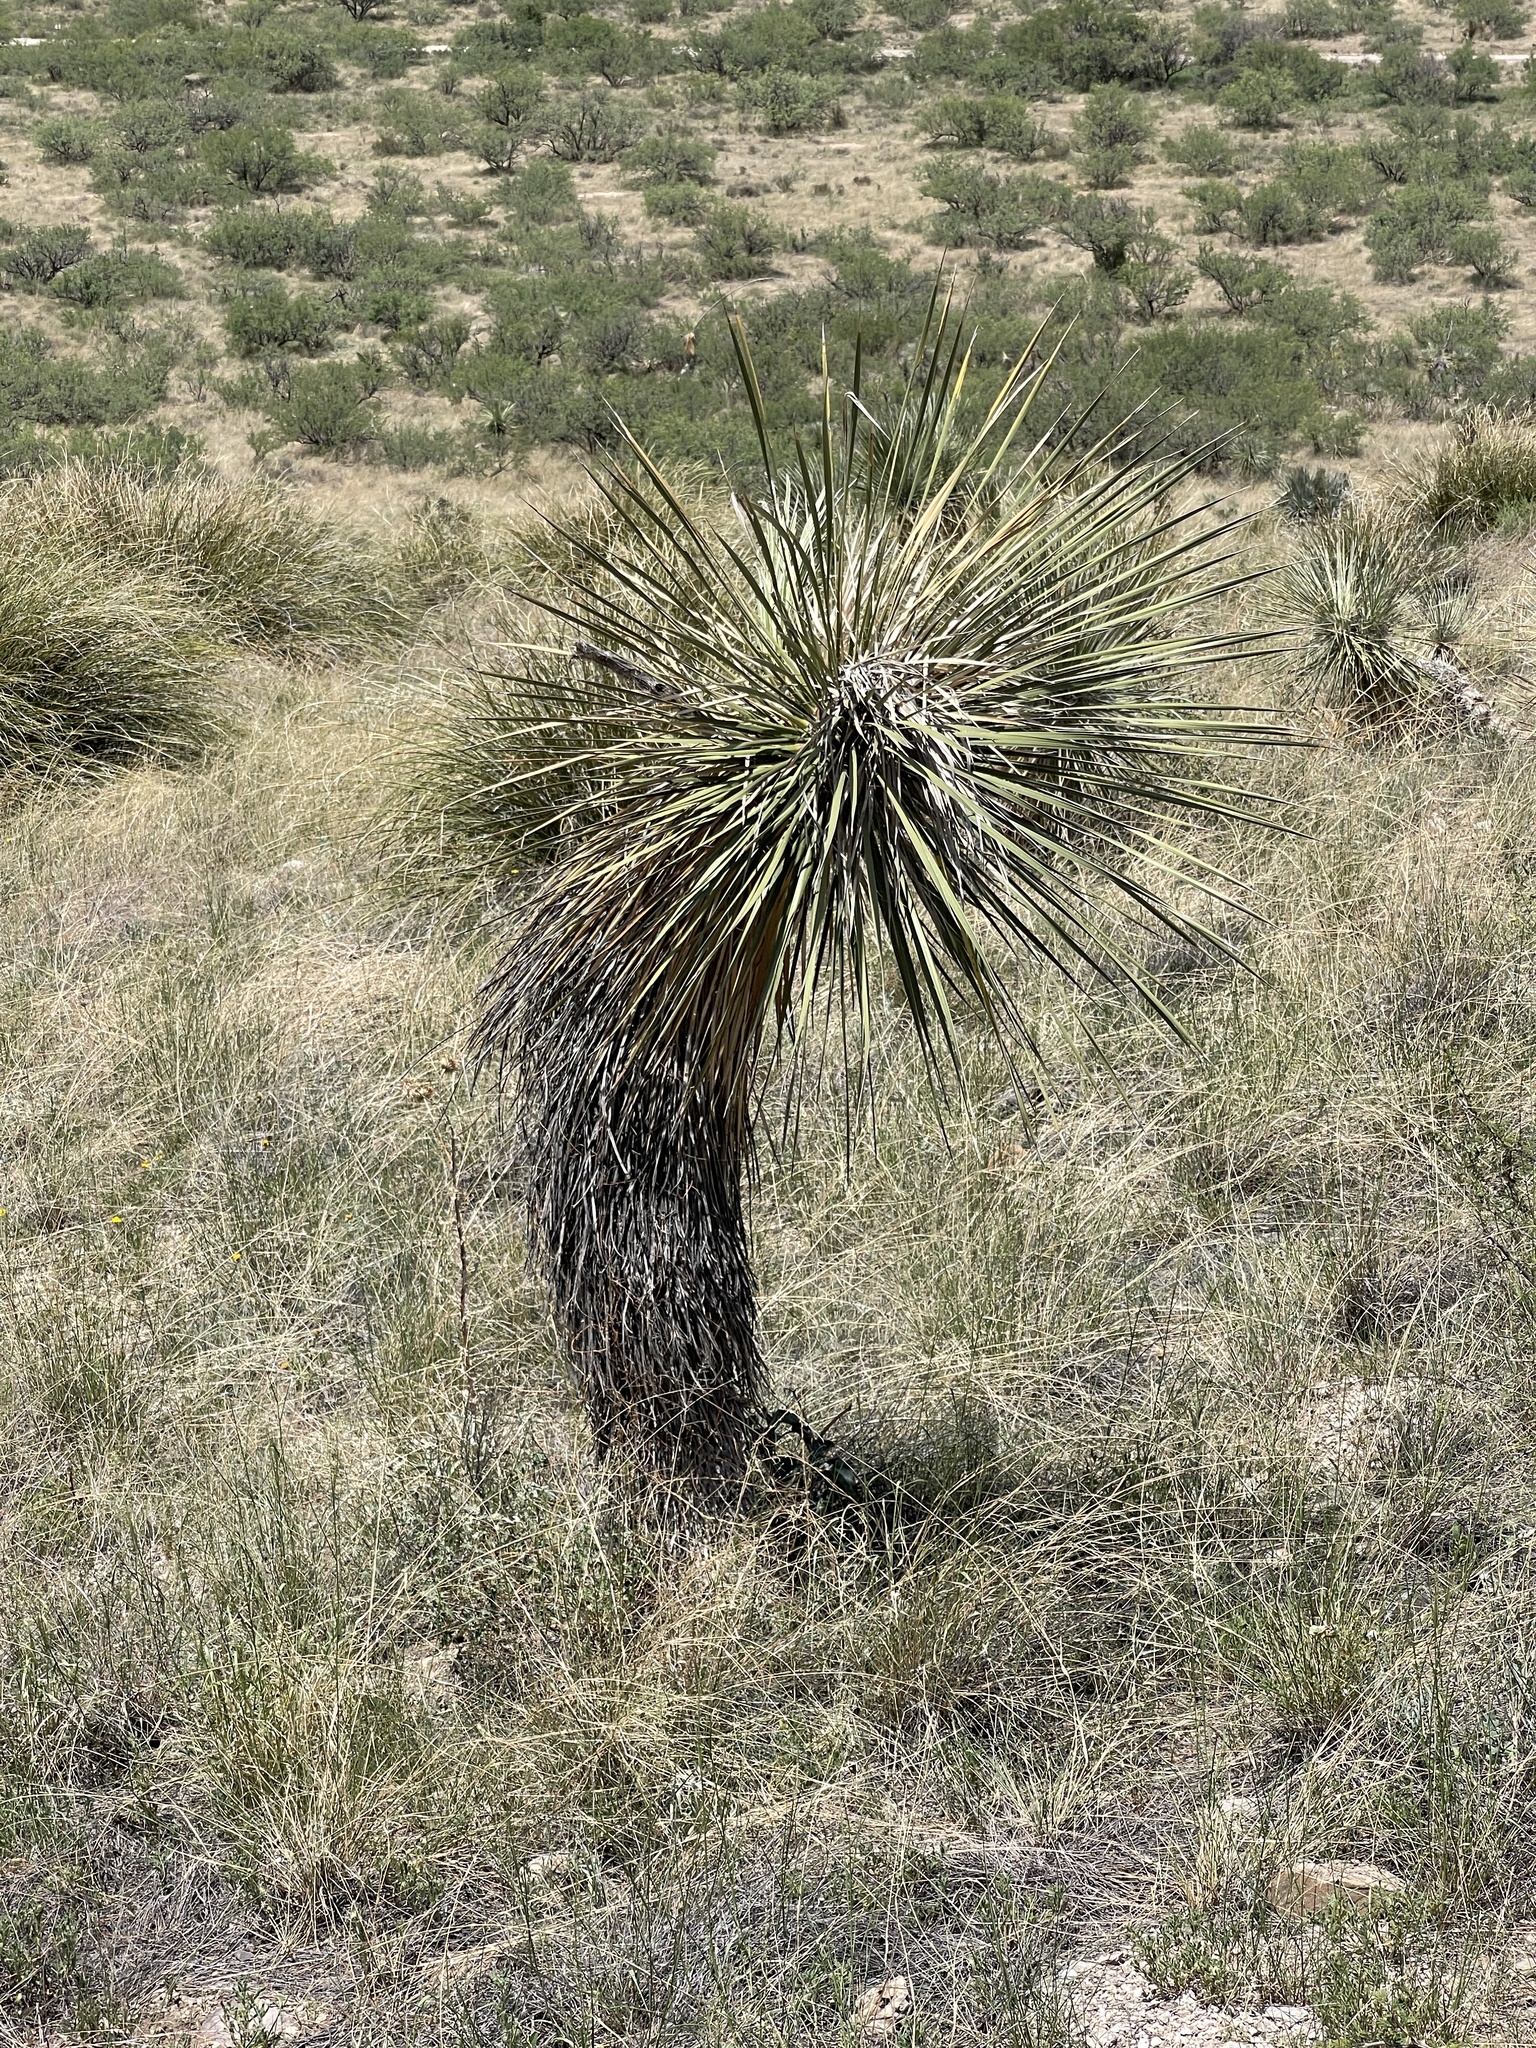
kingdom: Plantae
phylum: Tracheophyta
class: Liliopsida
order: Asparagales
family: Asparagaceae
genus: Yucca
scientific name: Yucca elata
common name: Palmella
